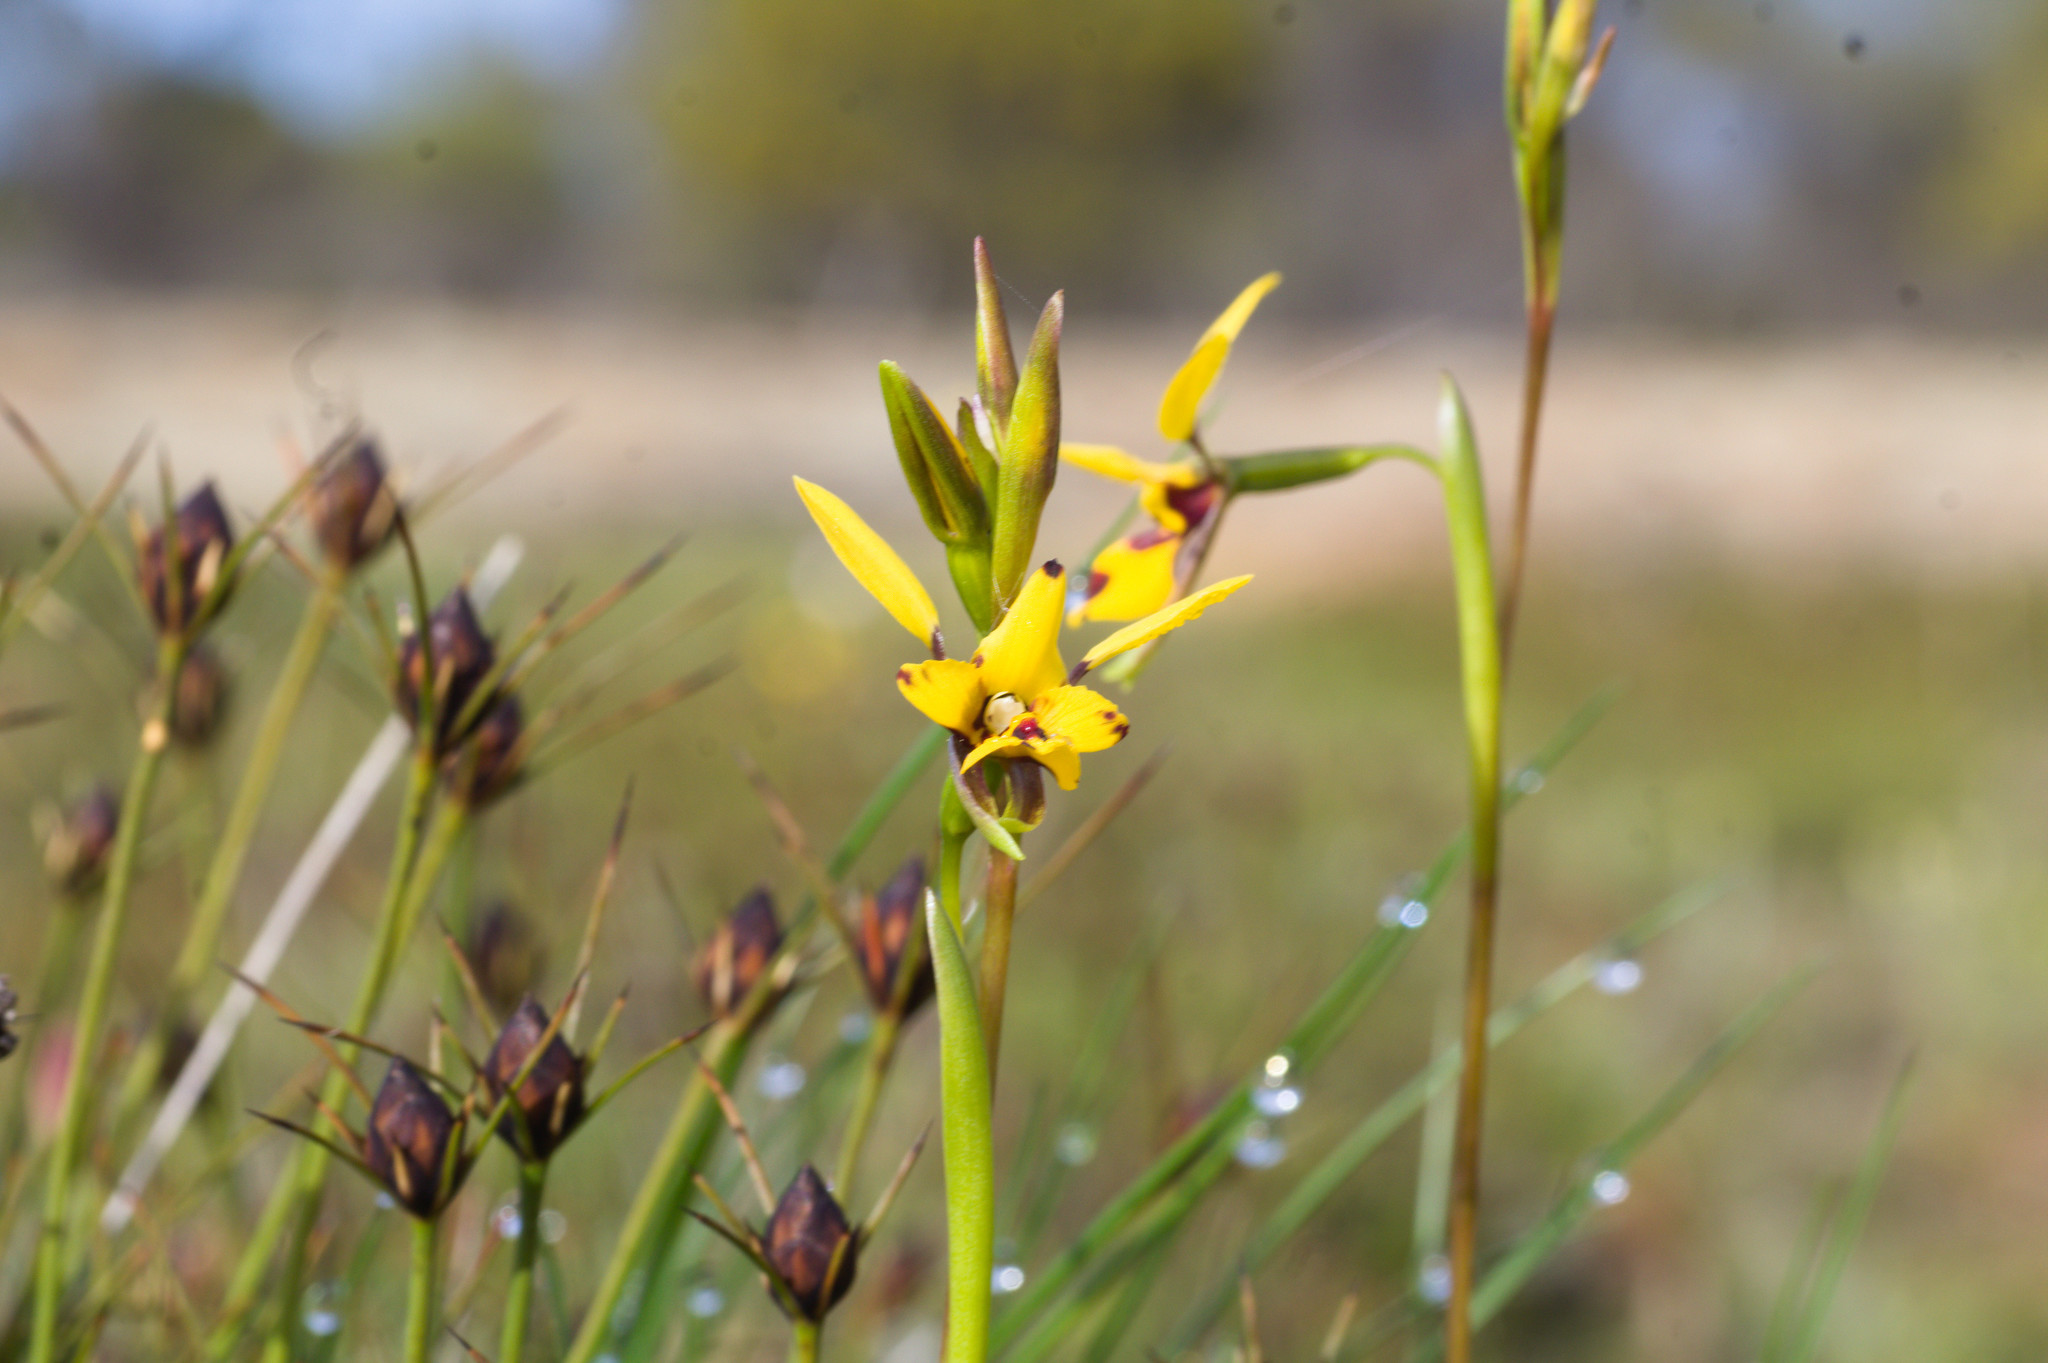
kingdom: Plantae
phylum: Tracheophyta
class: Liliopsida
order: Asparagales
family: Orchidaceae
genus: Diuris
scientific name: Diuris septentrionalis
